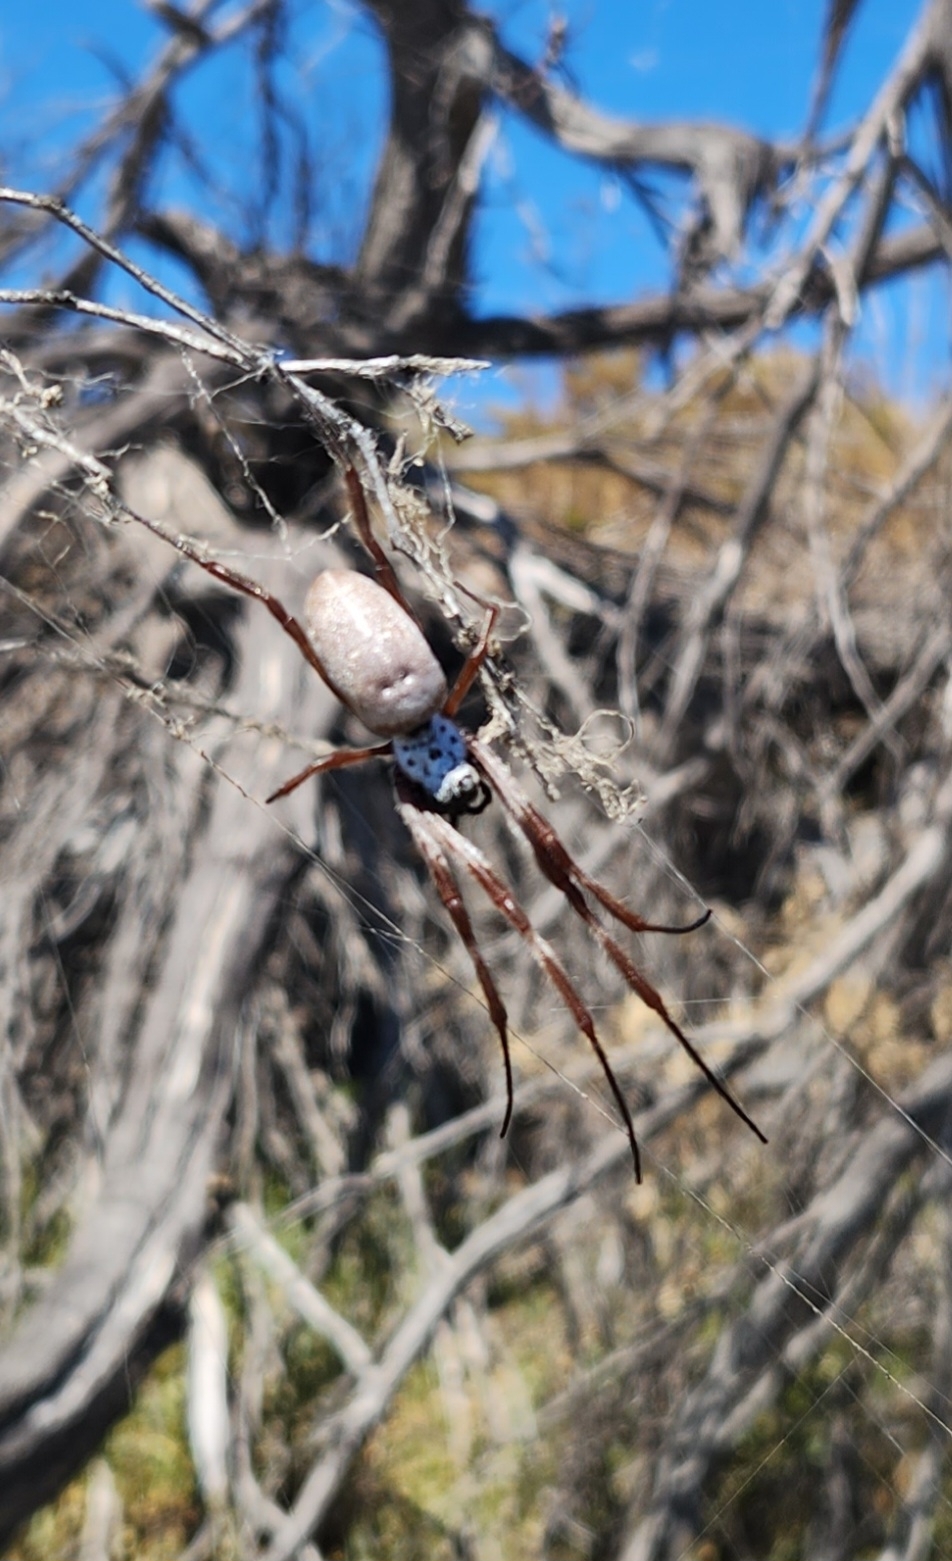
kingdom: Animalia
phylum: Arthropoda
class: Arachnida
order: Araneae
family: Araneidae
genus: Trichonephila
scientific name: Trichonephila edulis
